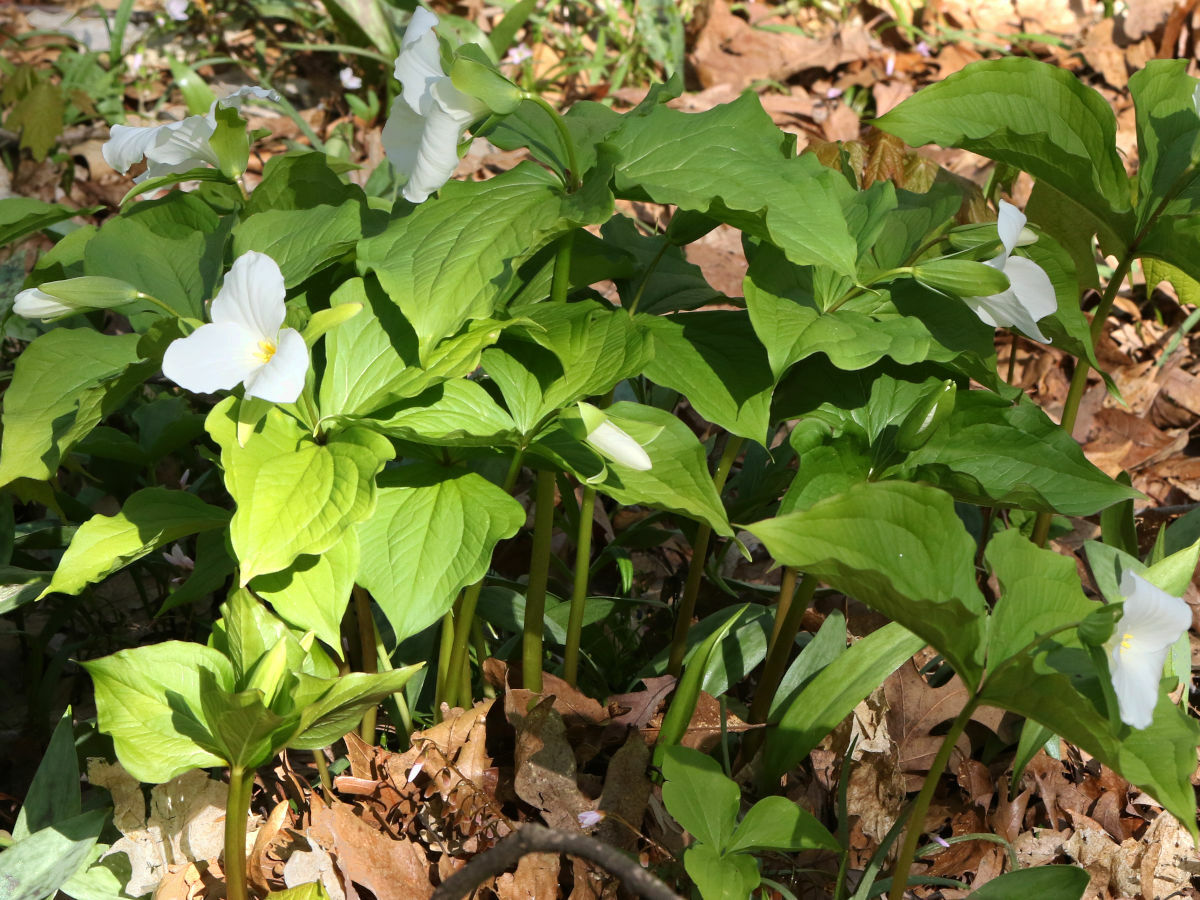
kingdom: Plantae
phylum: Tracheophyta
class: Liliopsida
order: Liliales
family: Melanthiaceae
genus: Trillium
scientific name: Trillium grandiflorum
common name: Great white trillium
